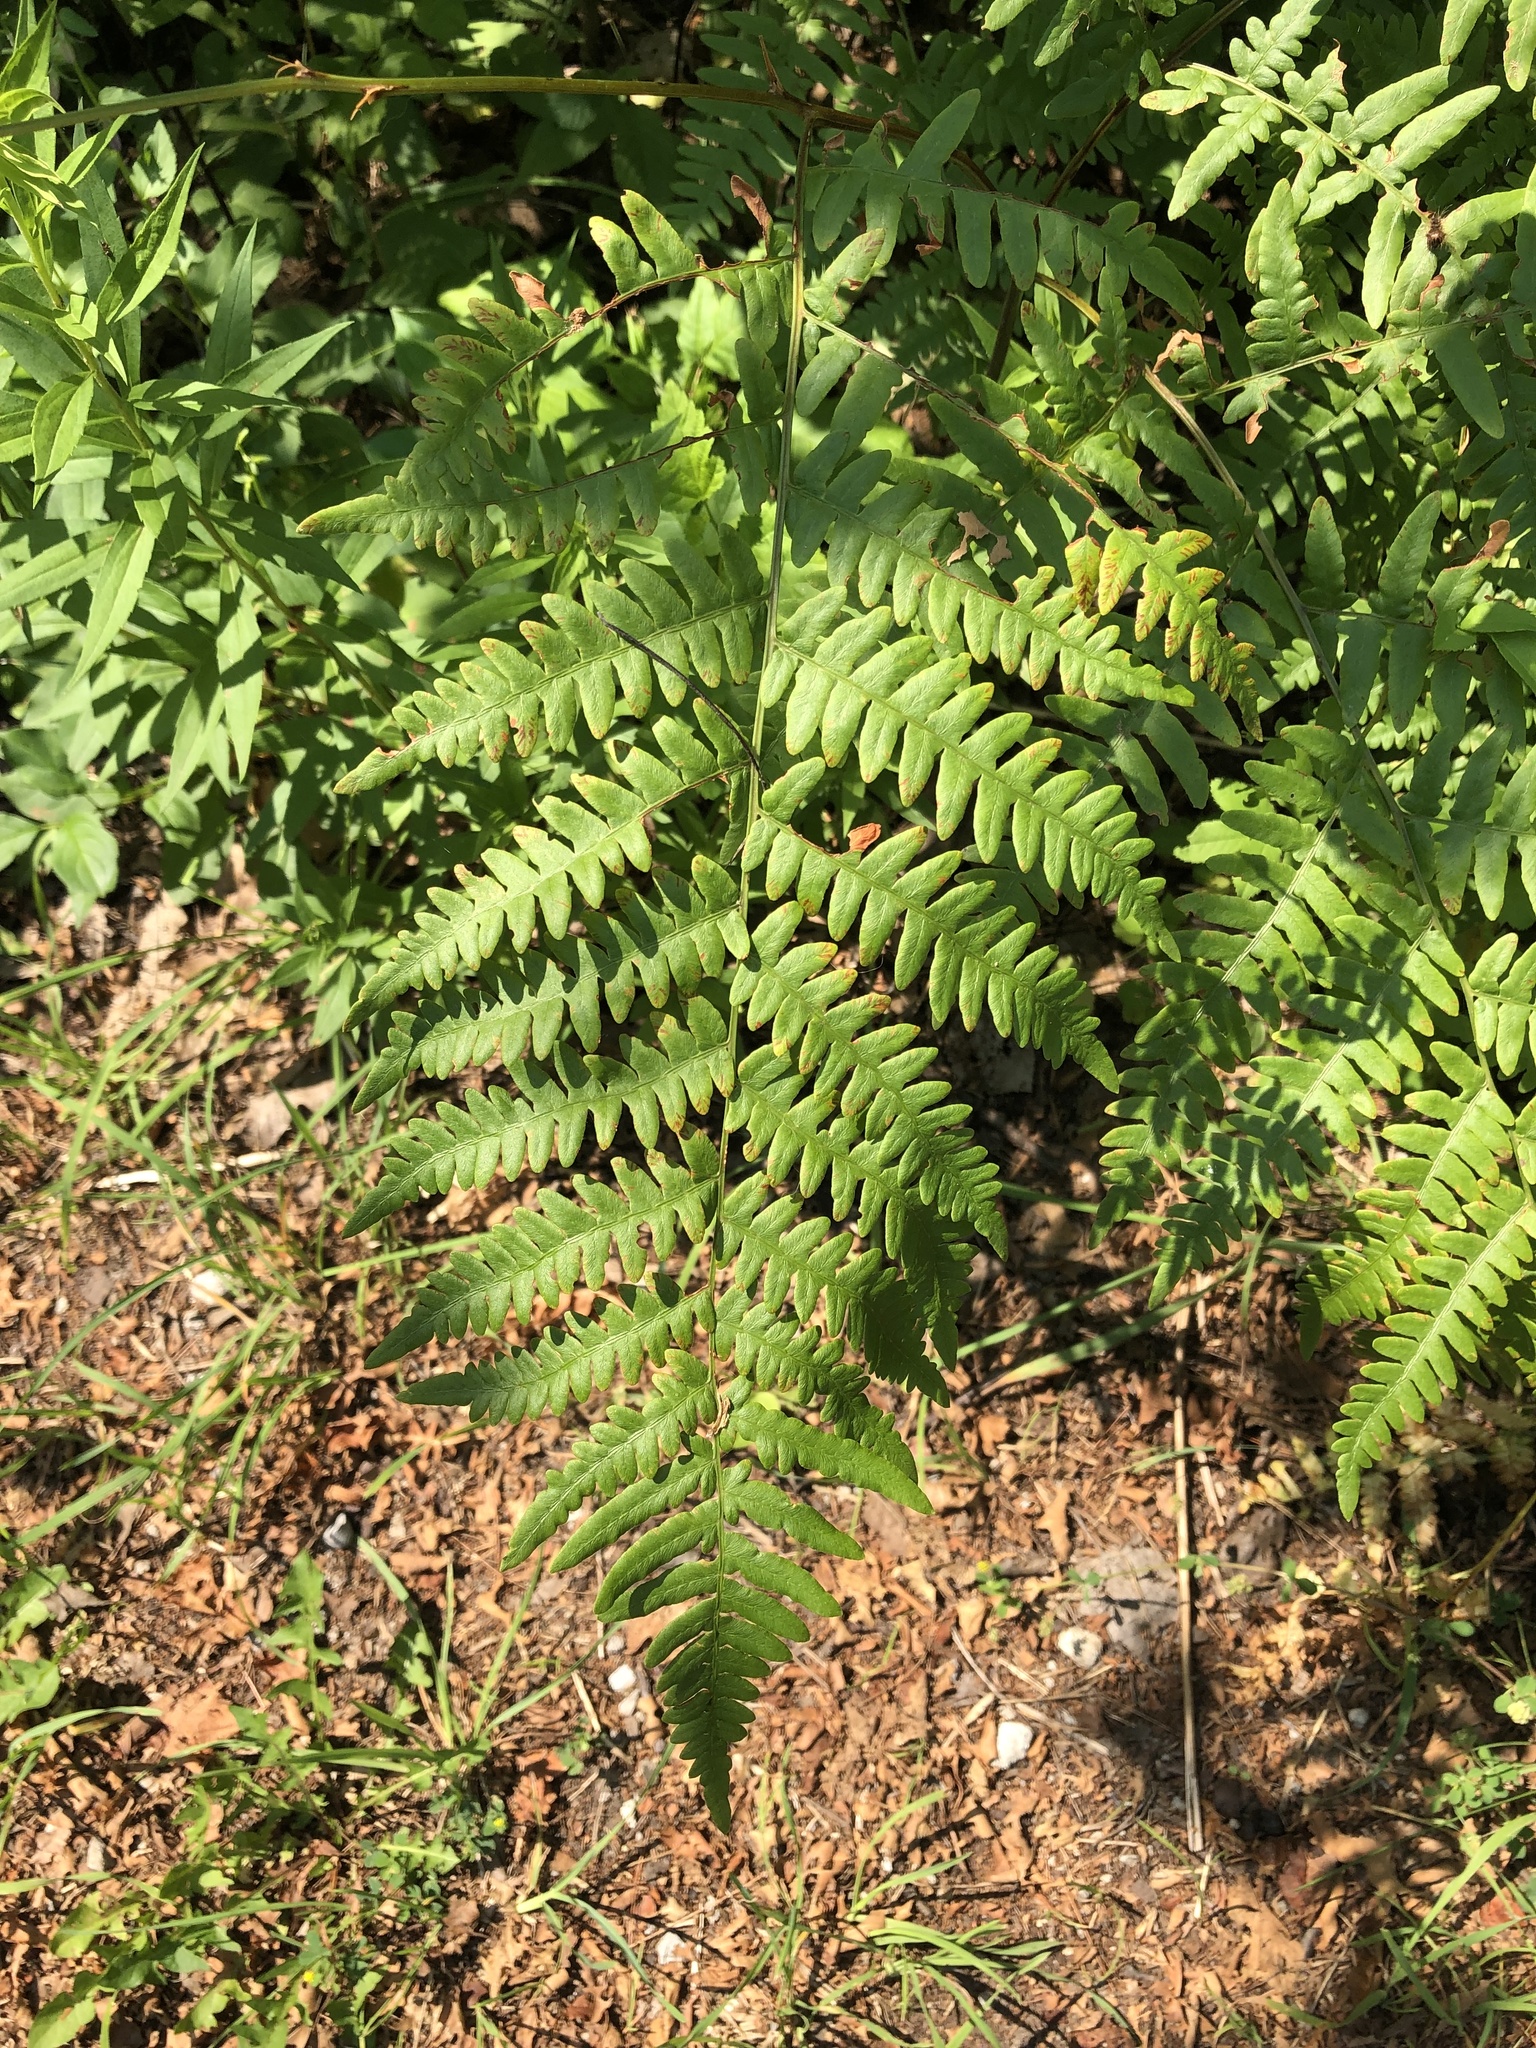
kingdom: Plantae
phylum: Tracheophyta
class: Polypodiopsida
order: Polypodiales
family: Dennstaedtiaceae
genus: Pteridium
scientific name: Pteridium aquilinum
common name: Bracken
